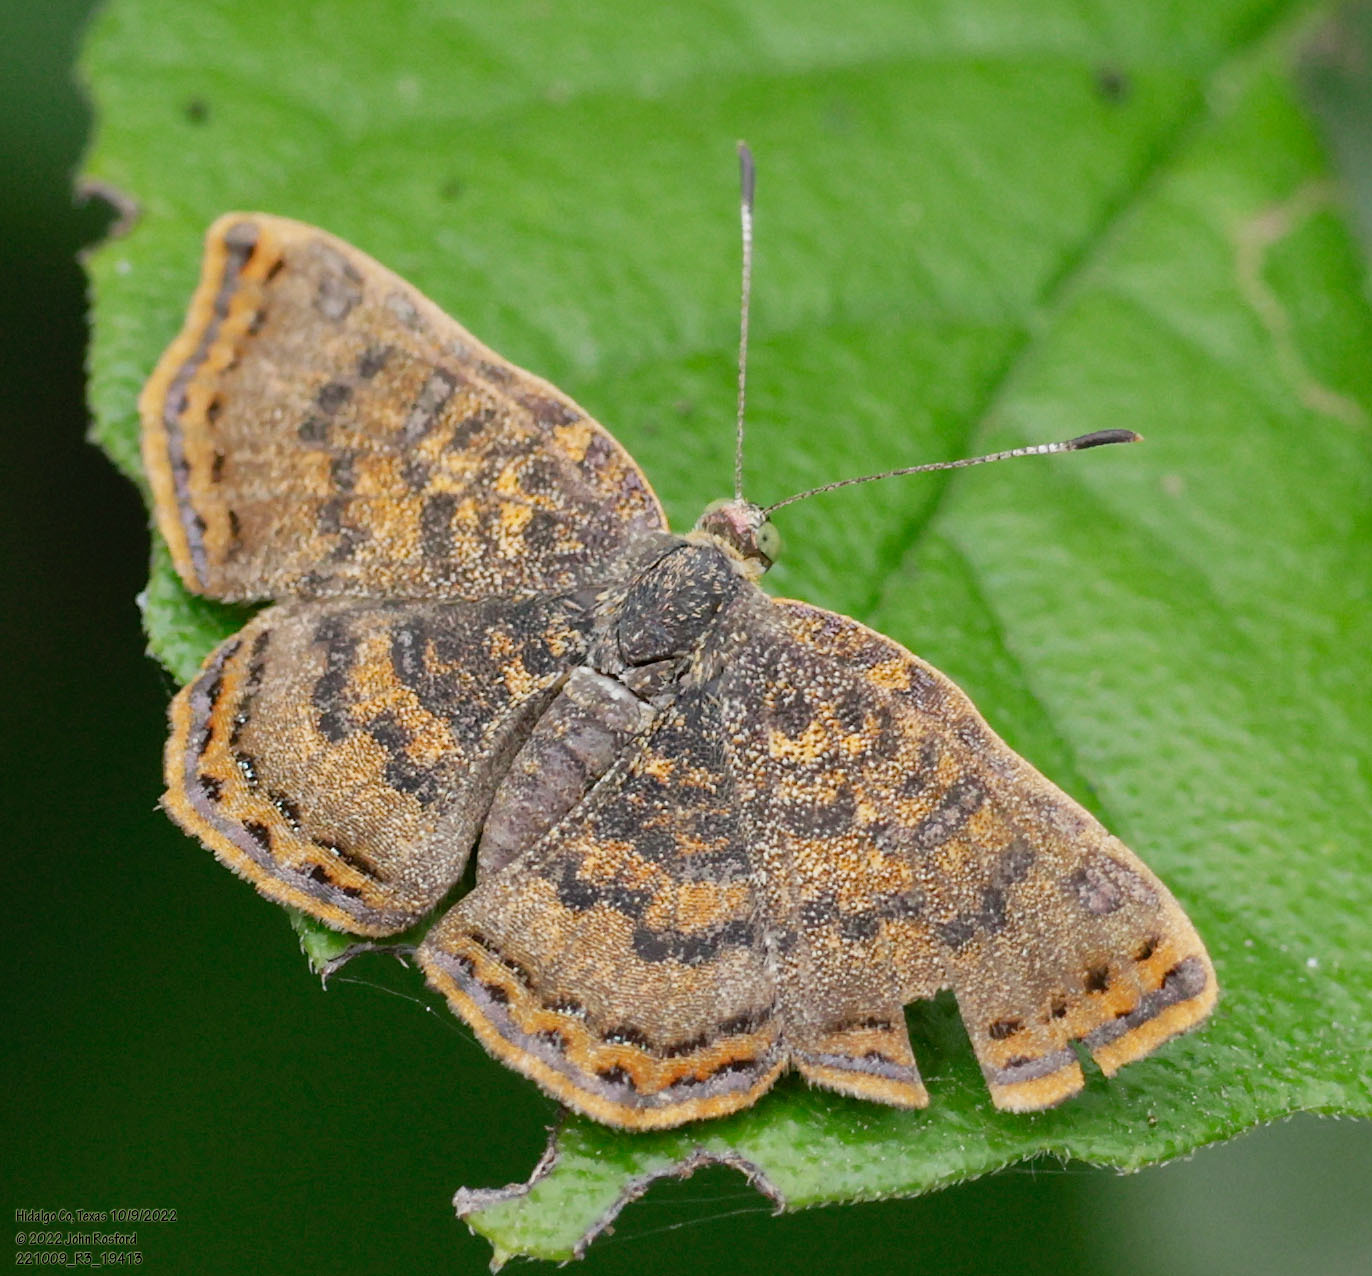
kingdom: Animalia
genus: Caria
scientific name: Caria ino
